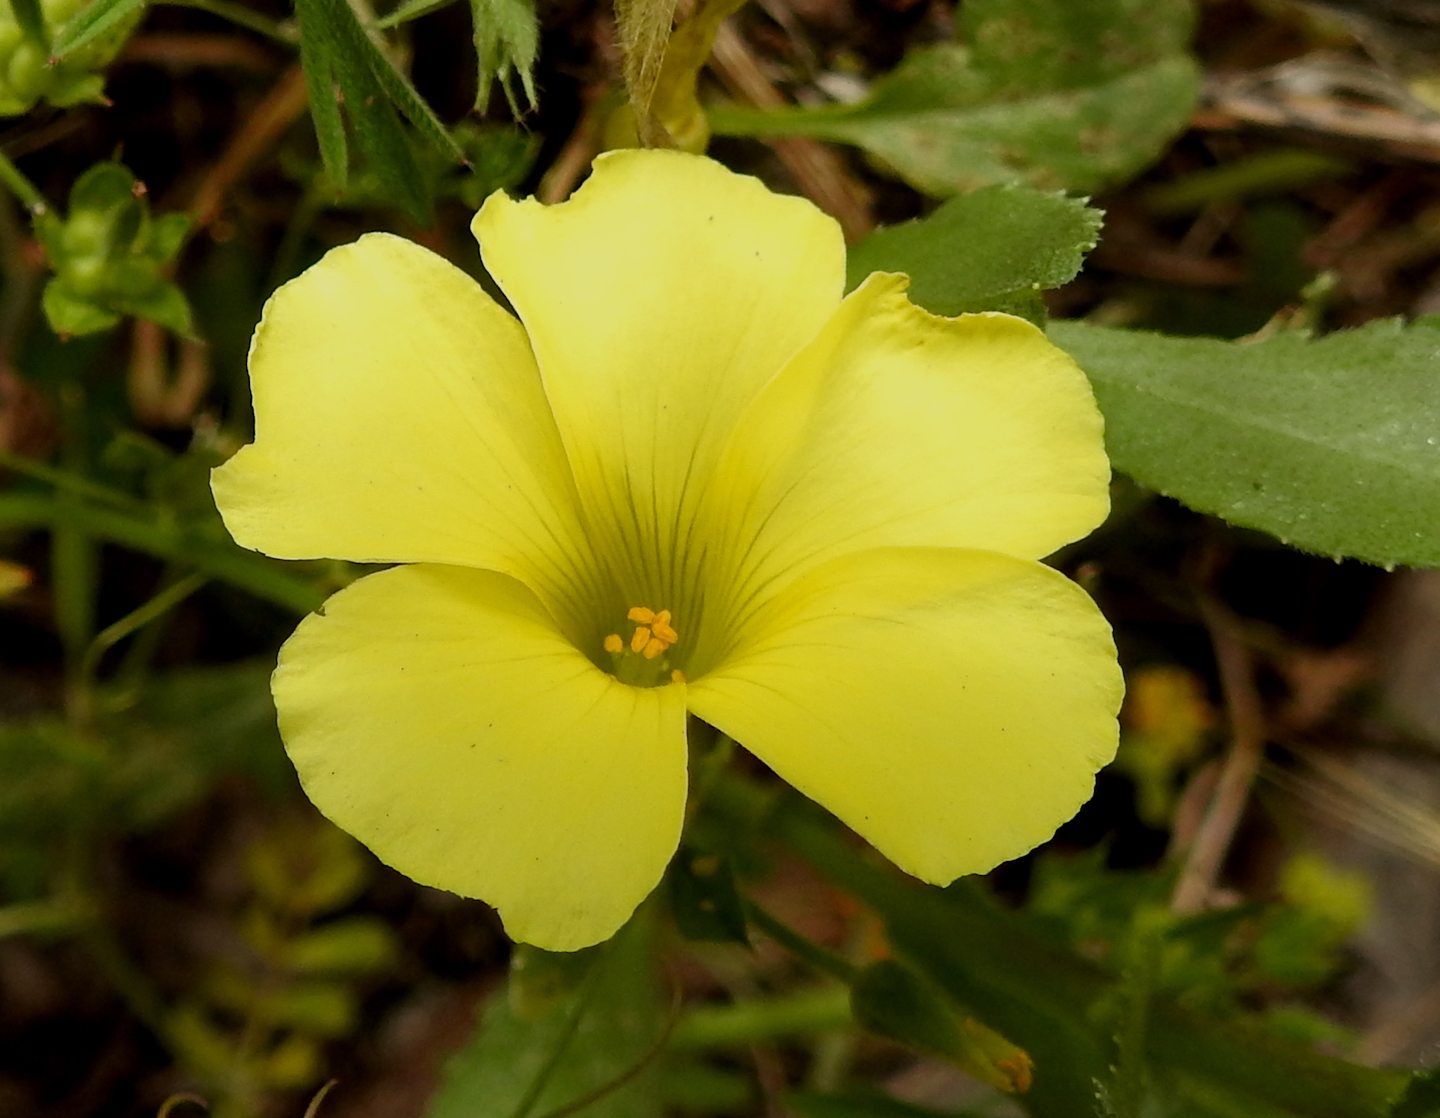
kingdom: Plantae
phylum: Tracheophyta
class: Magnoliopsida
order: Oxalidales
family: Oxalidaceae
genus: Oxalis
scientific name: Oxalis pes-caprae
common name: Bermuda-buttercup
